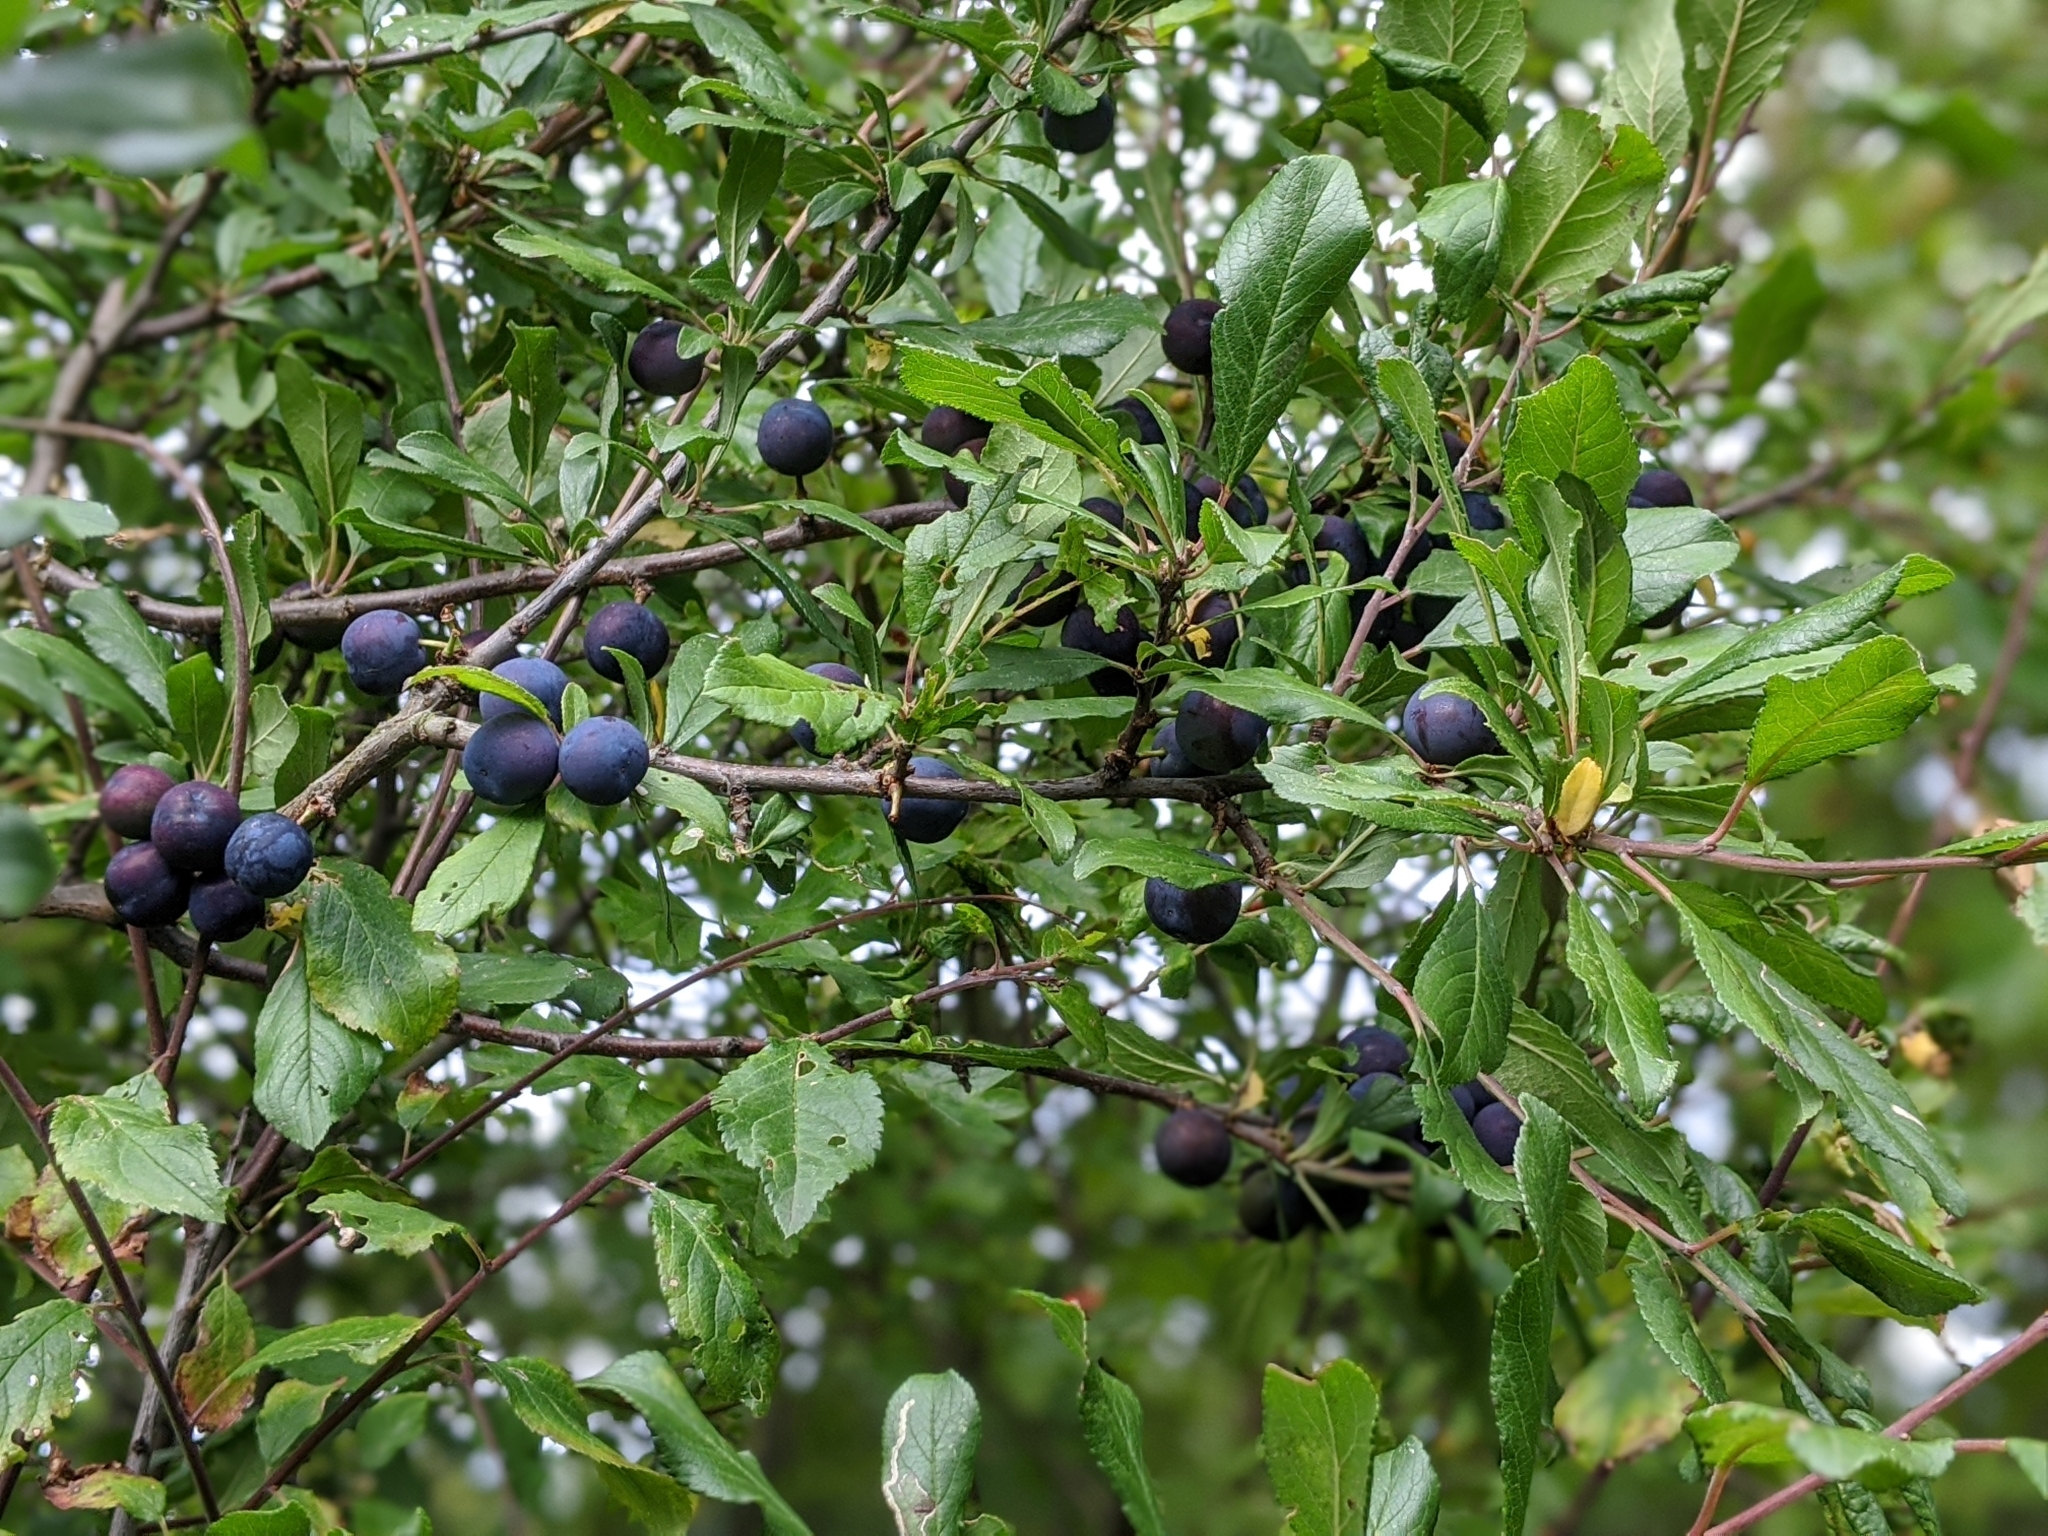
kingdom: Plantae
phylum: Tracheophyta
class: Magnoliopsida
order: Rosales
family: Rosaceae
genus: Prunus
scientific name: Prunus spinosa
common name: Blackthorn
